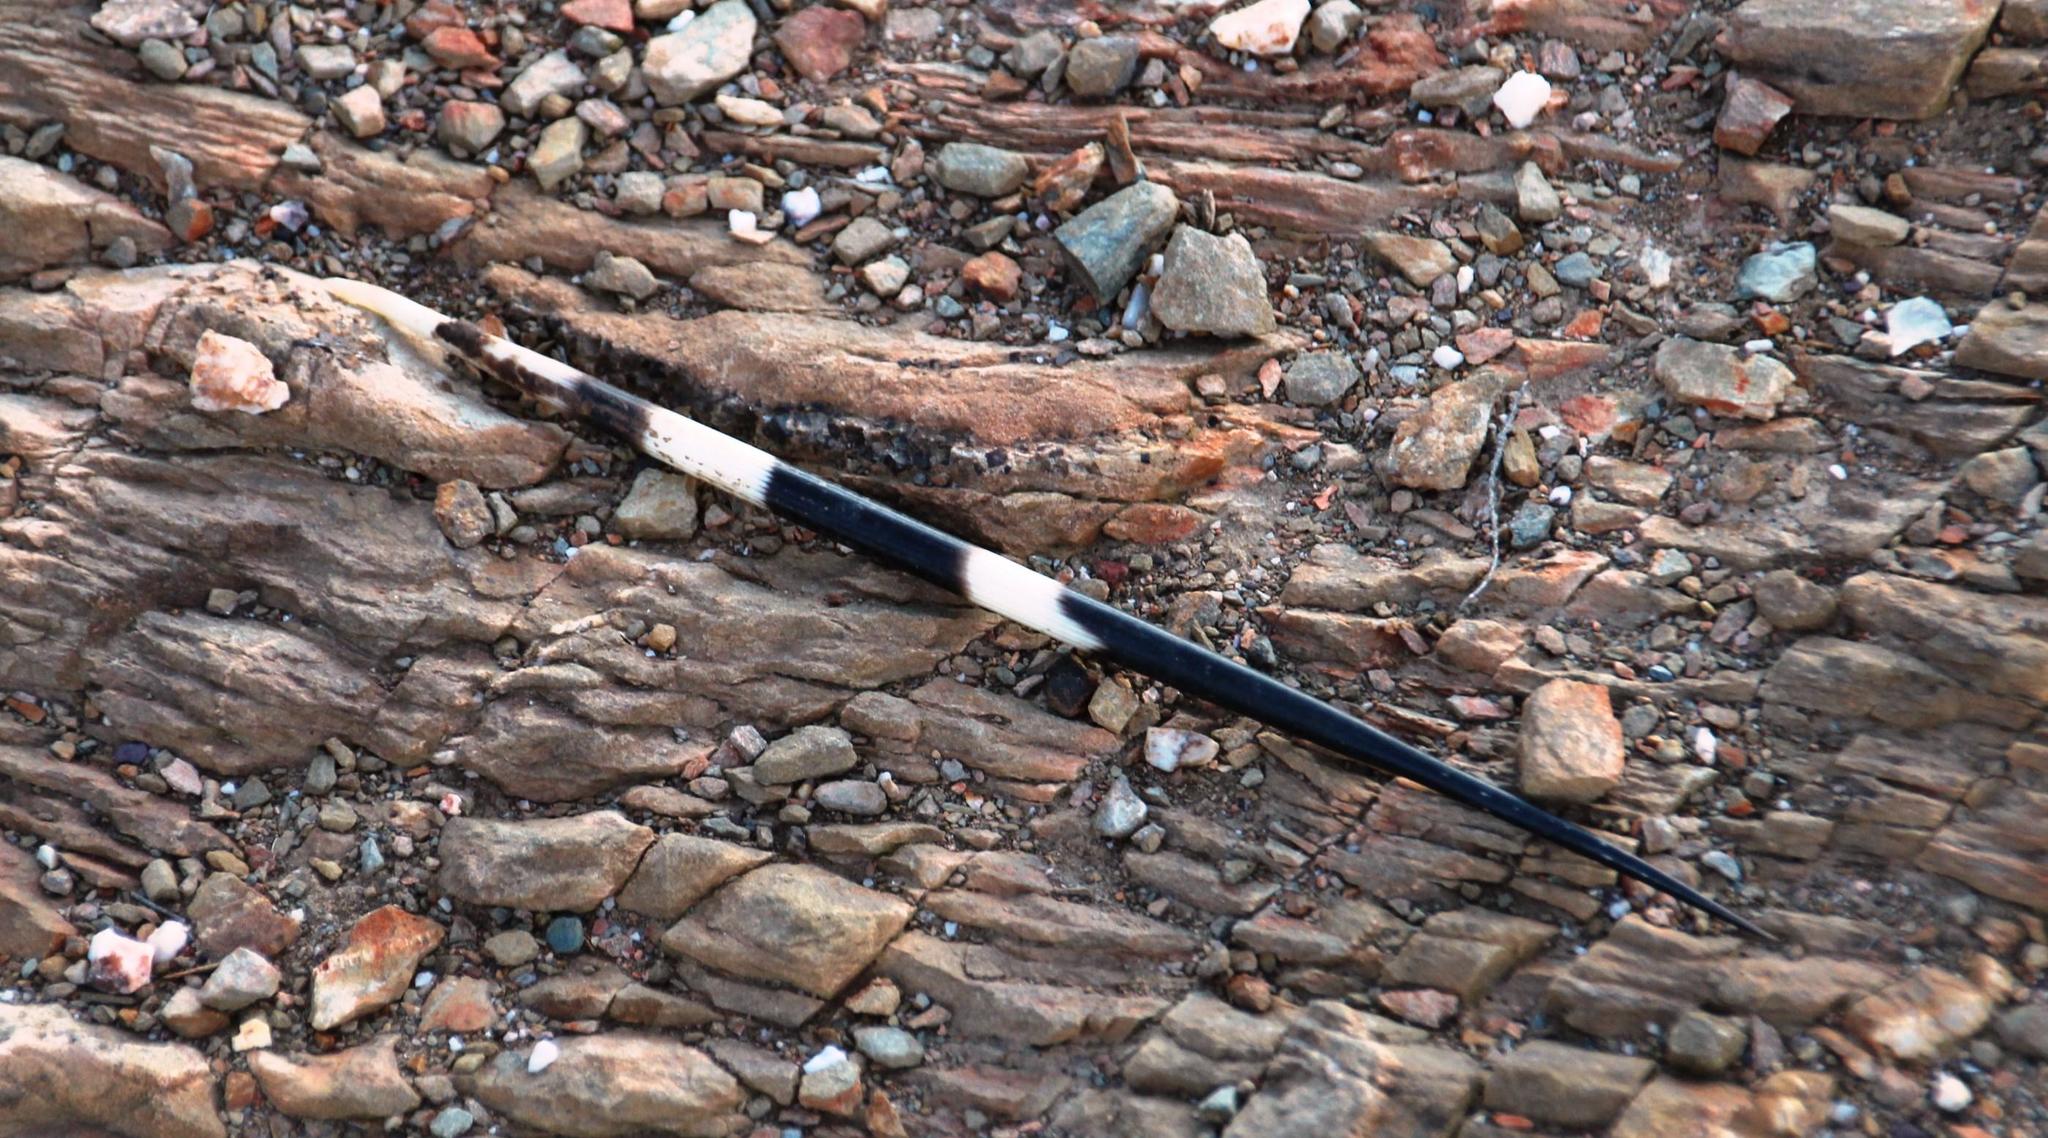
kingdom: Animalia
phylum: Chordata
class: Mammalia
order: Rodentia
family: Hystricidae
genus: Hystrix
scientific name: Hystrix africaeaustralis
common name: Cape porcupine
